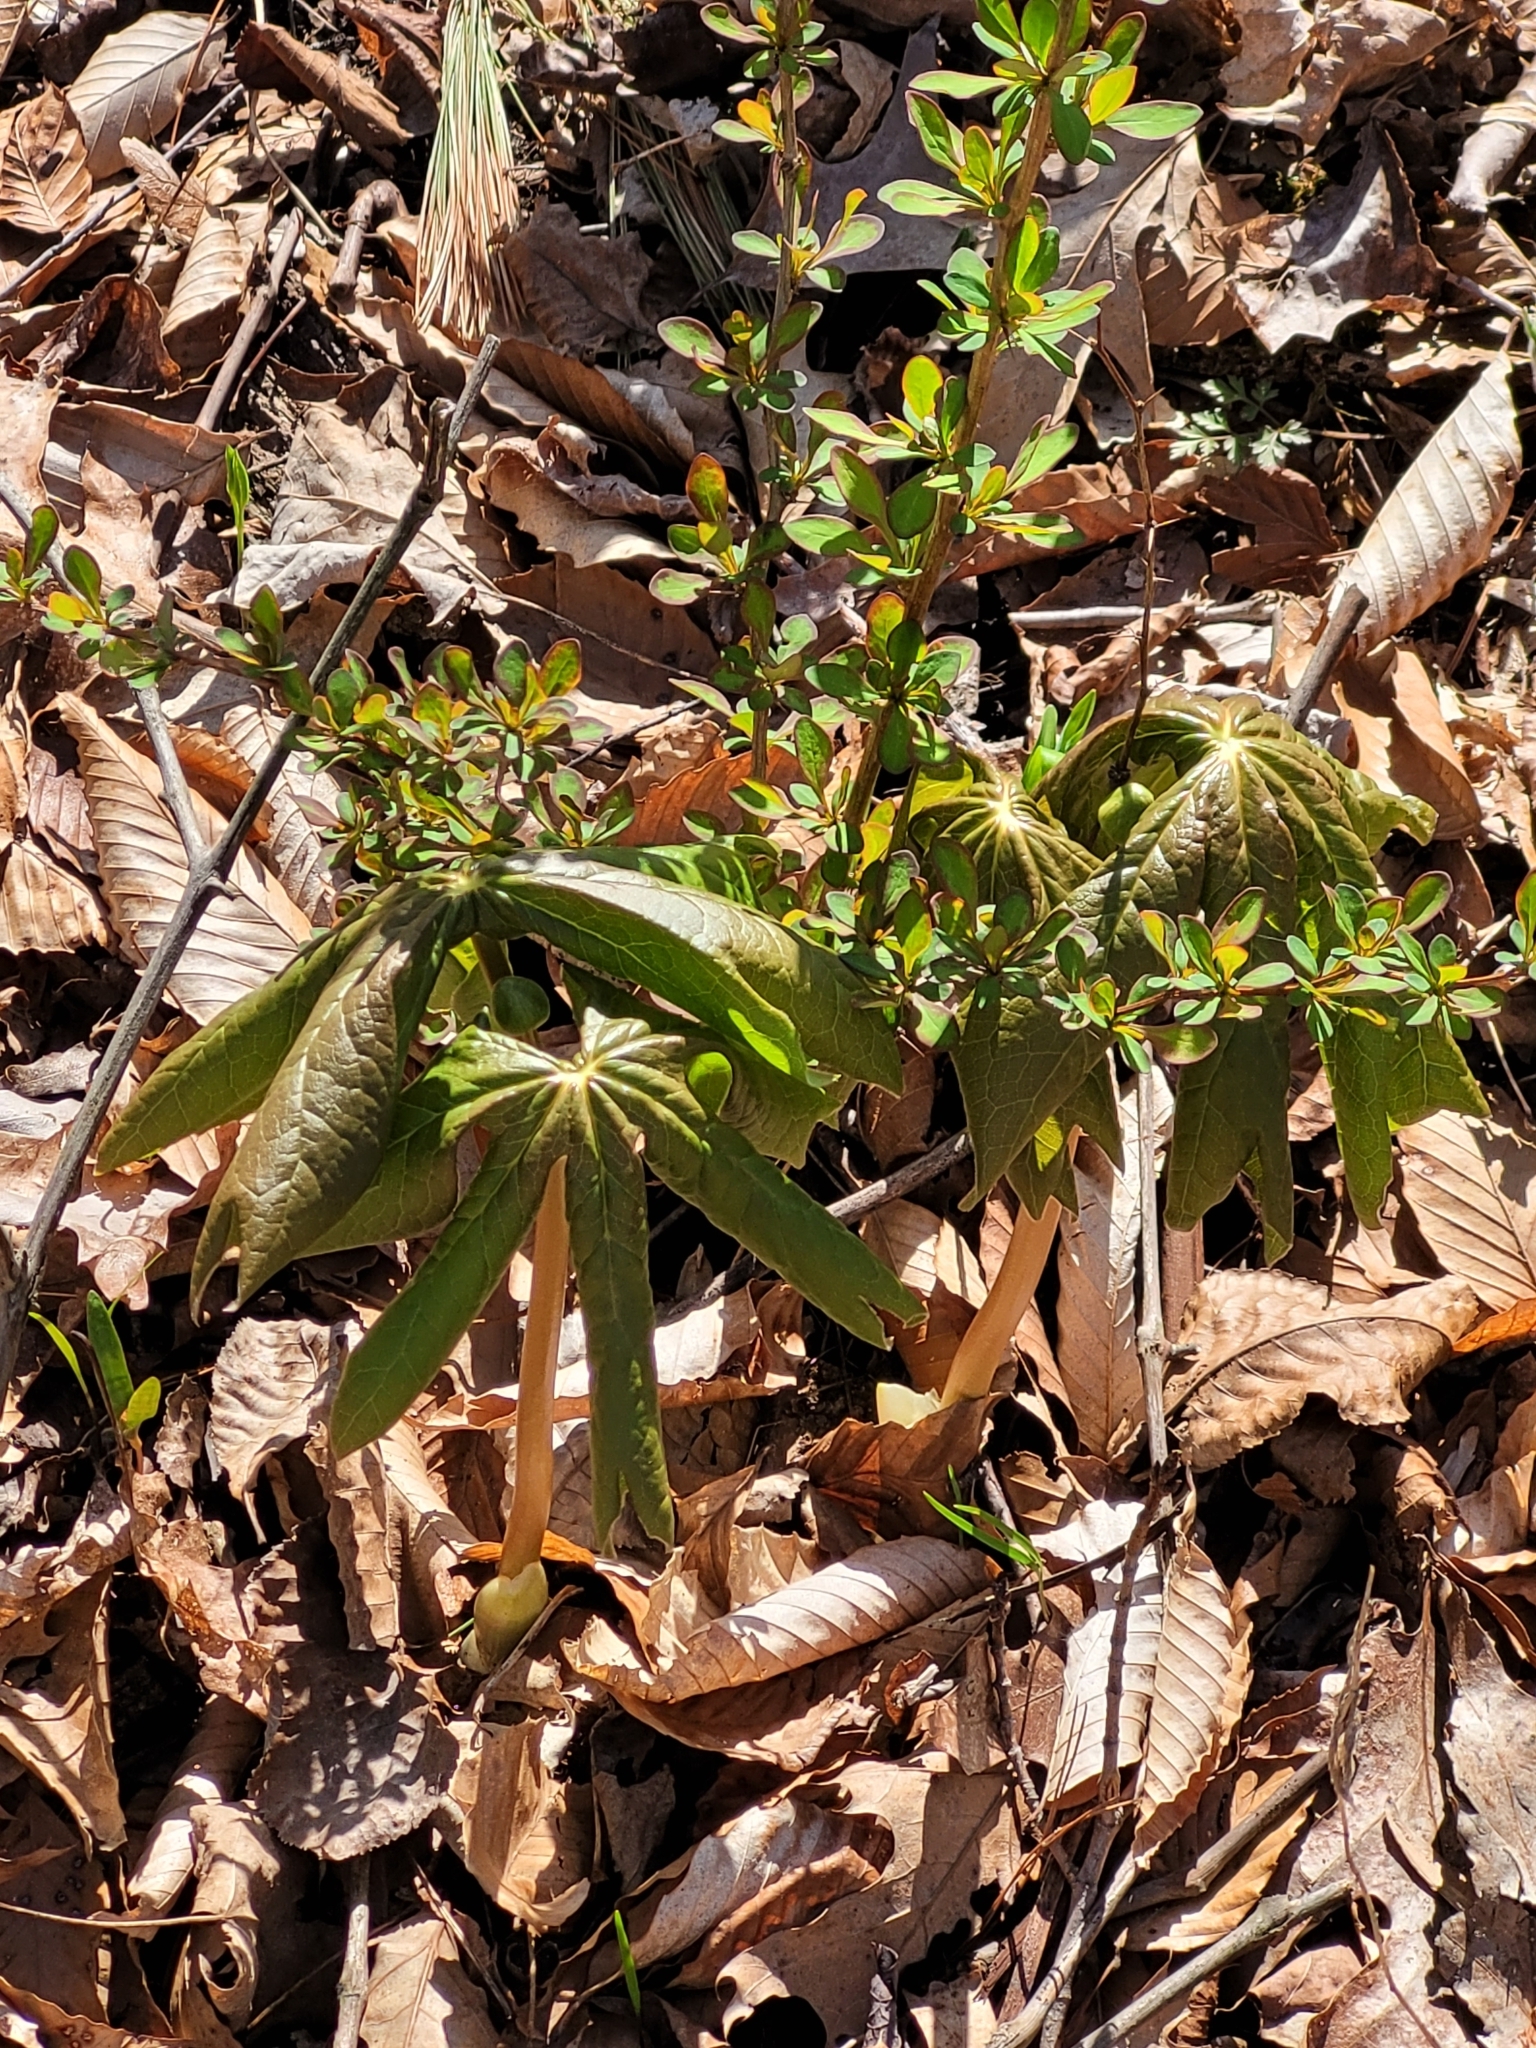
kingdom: Plantae
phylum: Tracheophyta
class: Magnoliopsida
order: Ranunculales
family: Berberidaceae
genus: Podophyllum
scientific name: Podophyllum peltatum
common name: Wild mandrake
